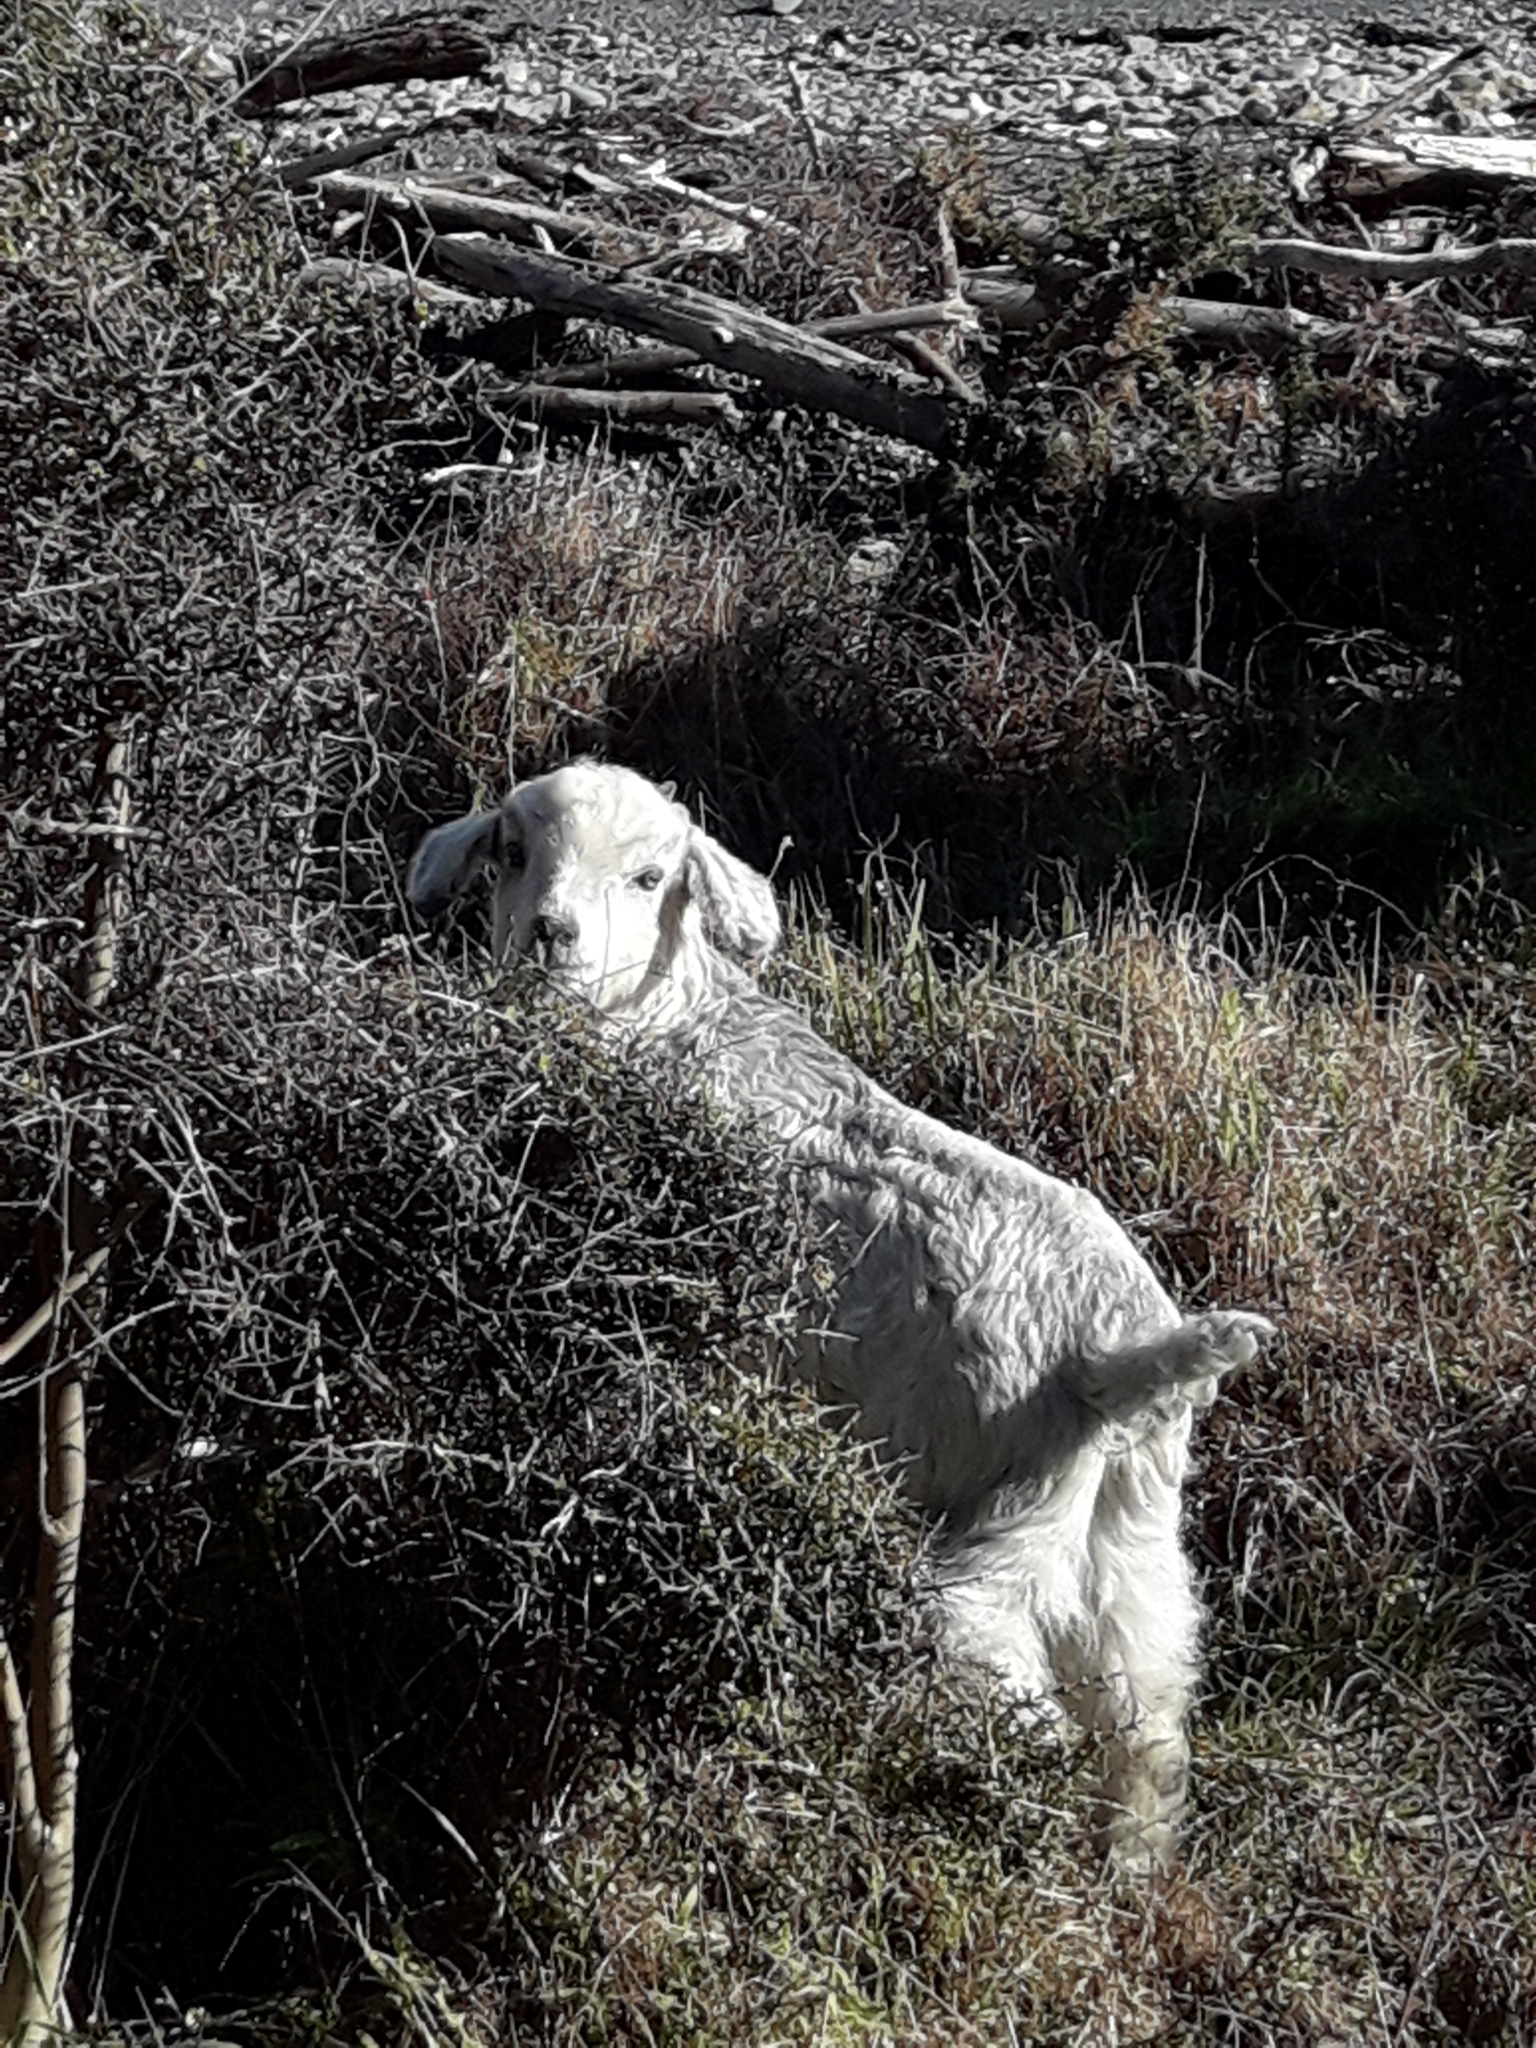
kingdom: Animalia
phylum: Chordata
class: Mammalia
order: Artiodactyla
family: Bovidae
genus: Capra
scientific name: Capra hircus
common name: Domestic goat
